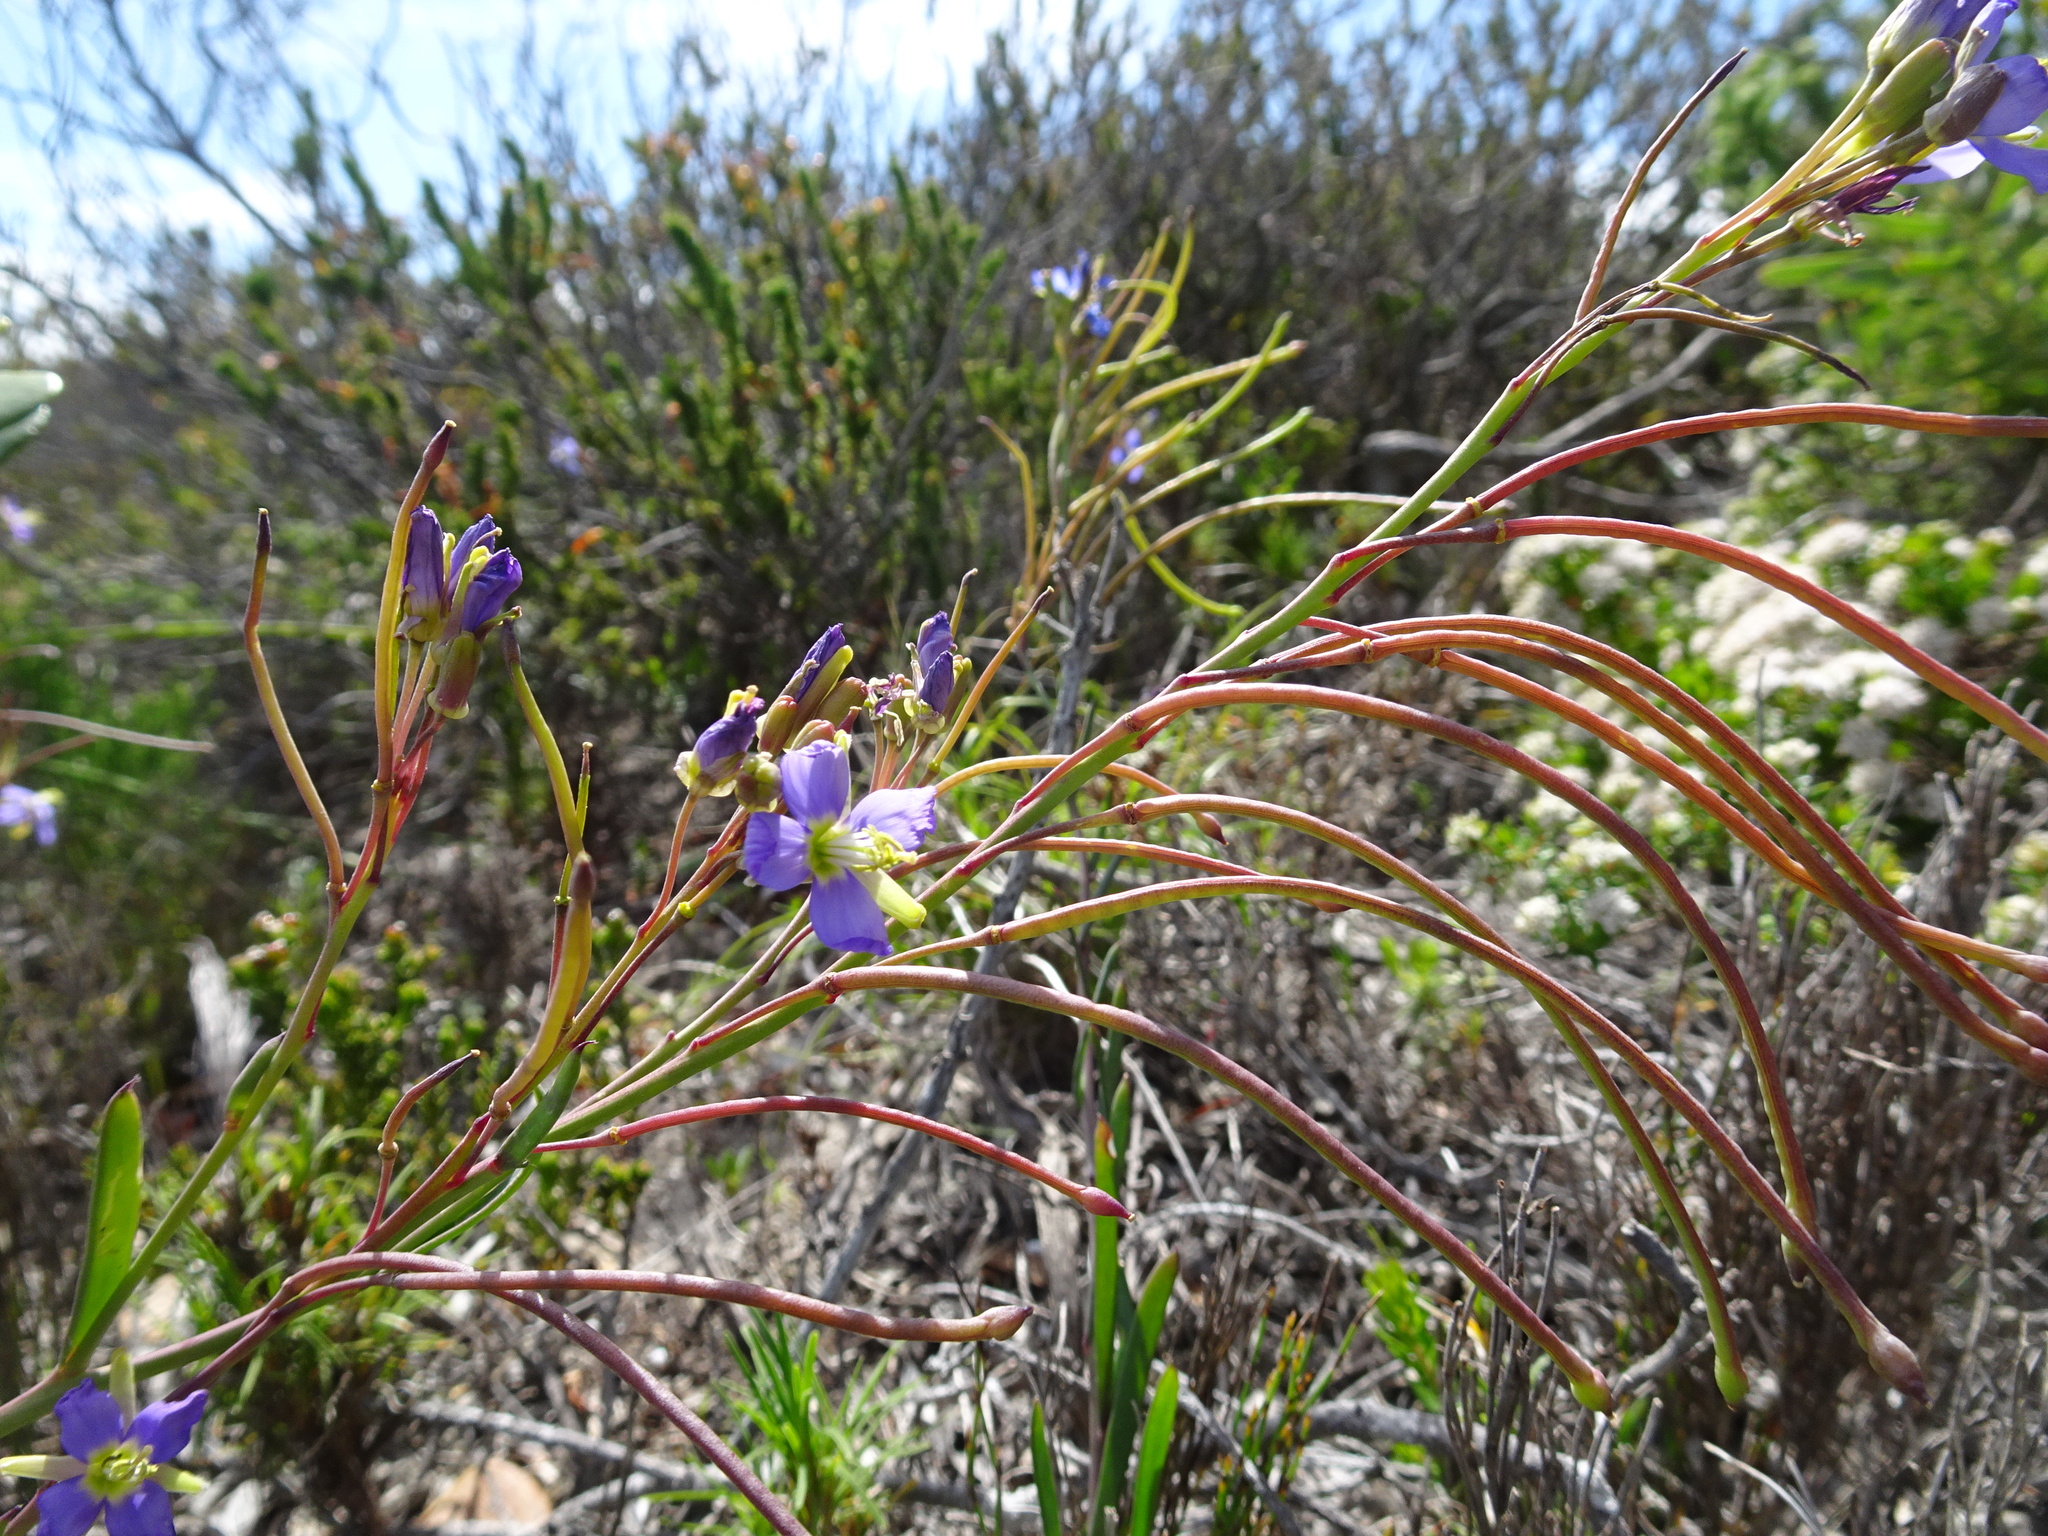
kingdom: Plantae
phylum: Tracheophyta
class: Magnoliopsida
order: Brassicales
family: Brassicaceae
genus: Heliophila
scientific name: Heliophila linearis
